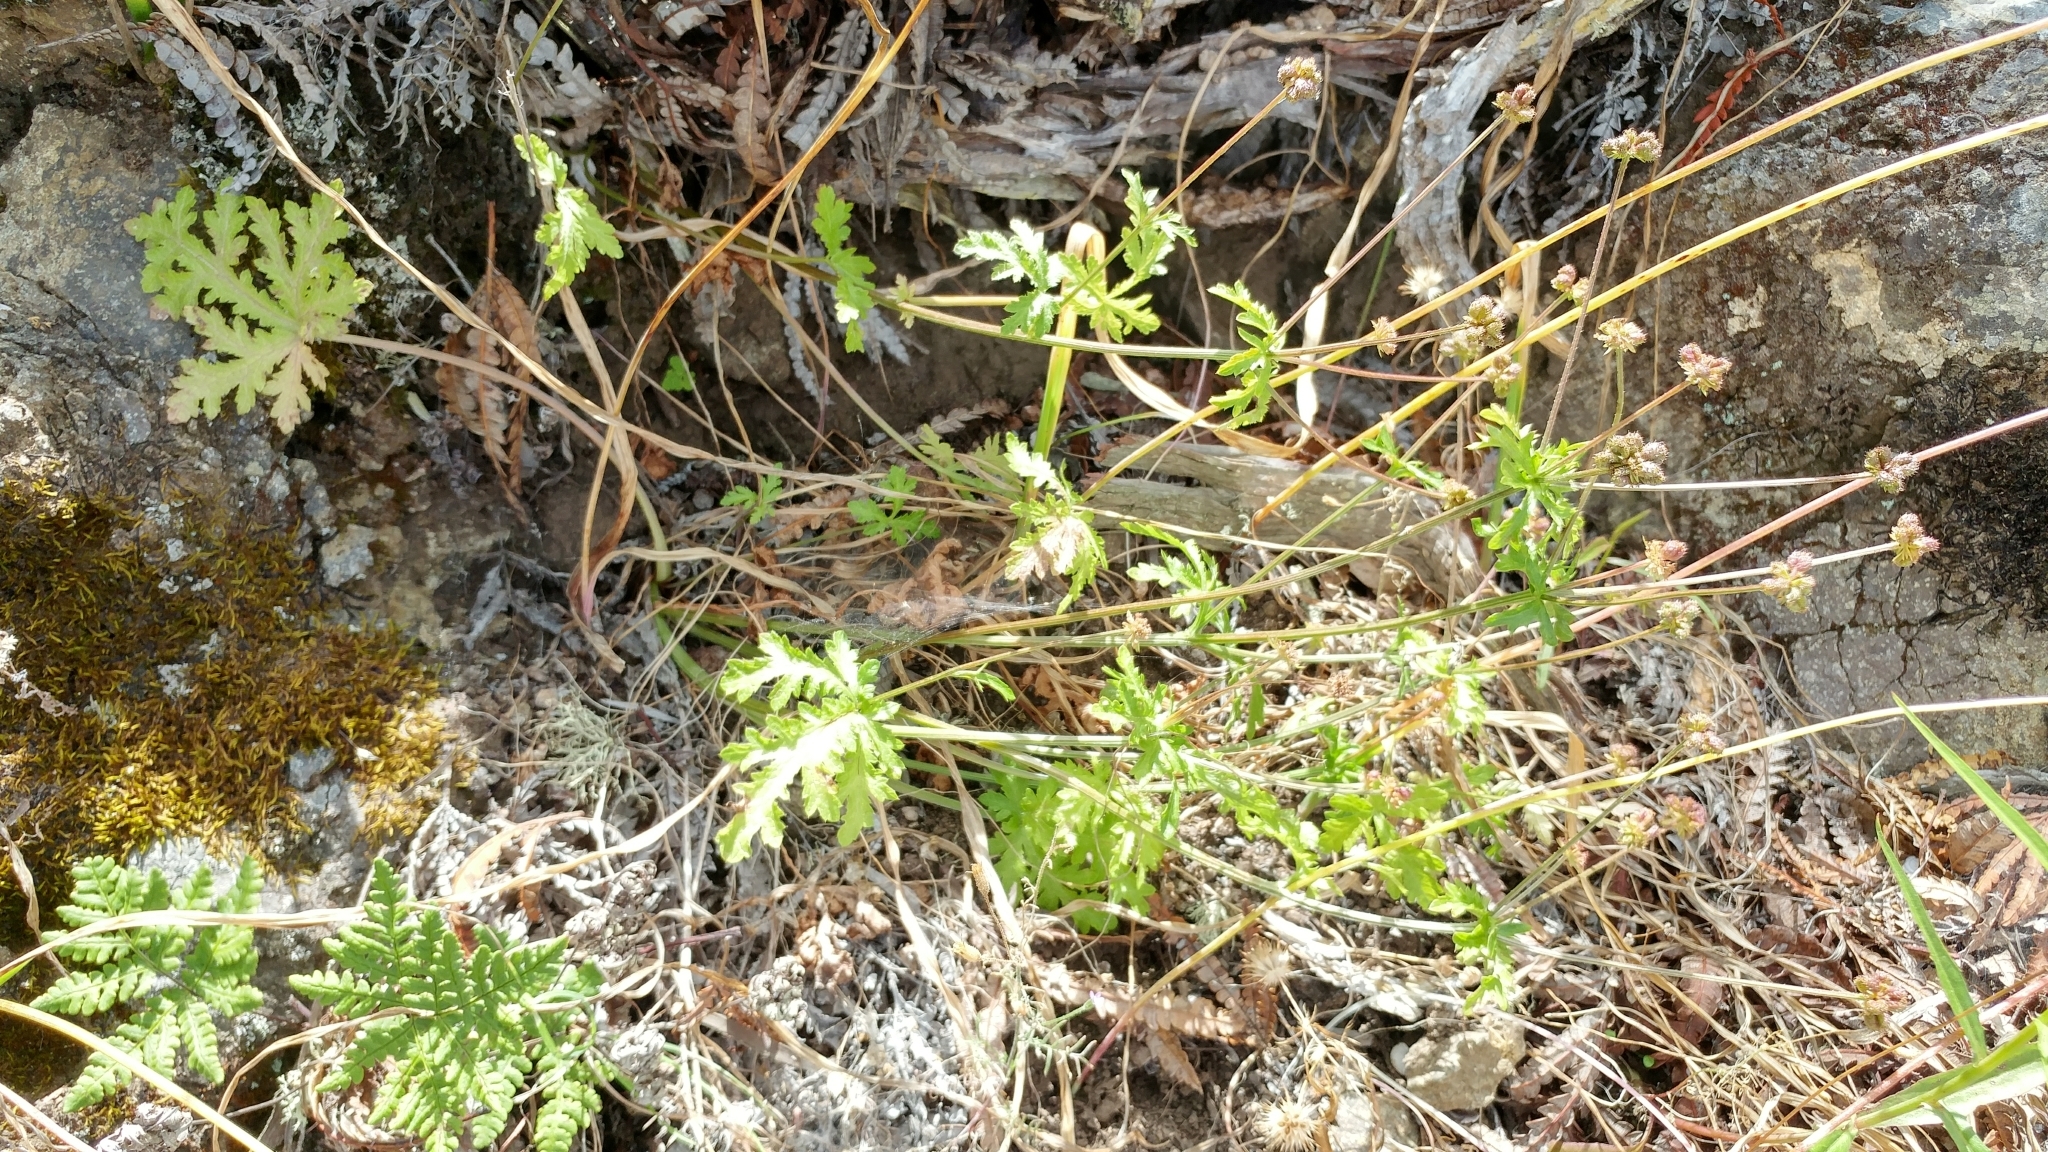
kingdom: Plantae
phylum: Tracheophyta
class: Magnoliopsida
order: Apiales
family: Apiaceae
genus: Sanicula
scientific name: Sanicula arguta
